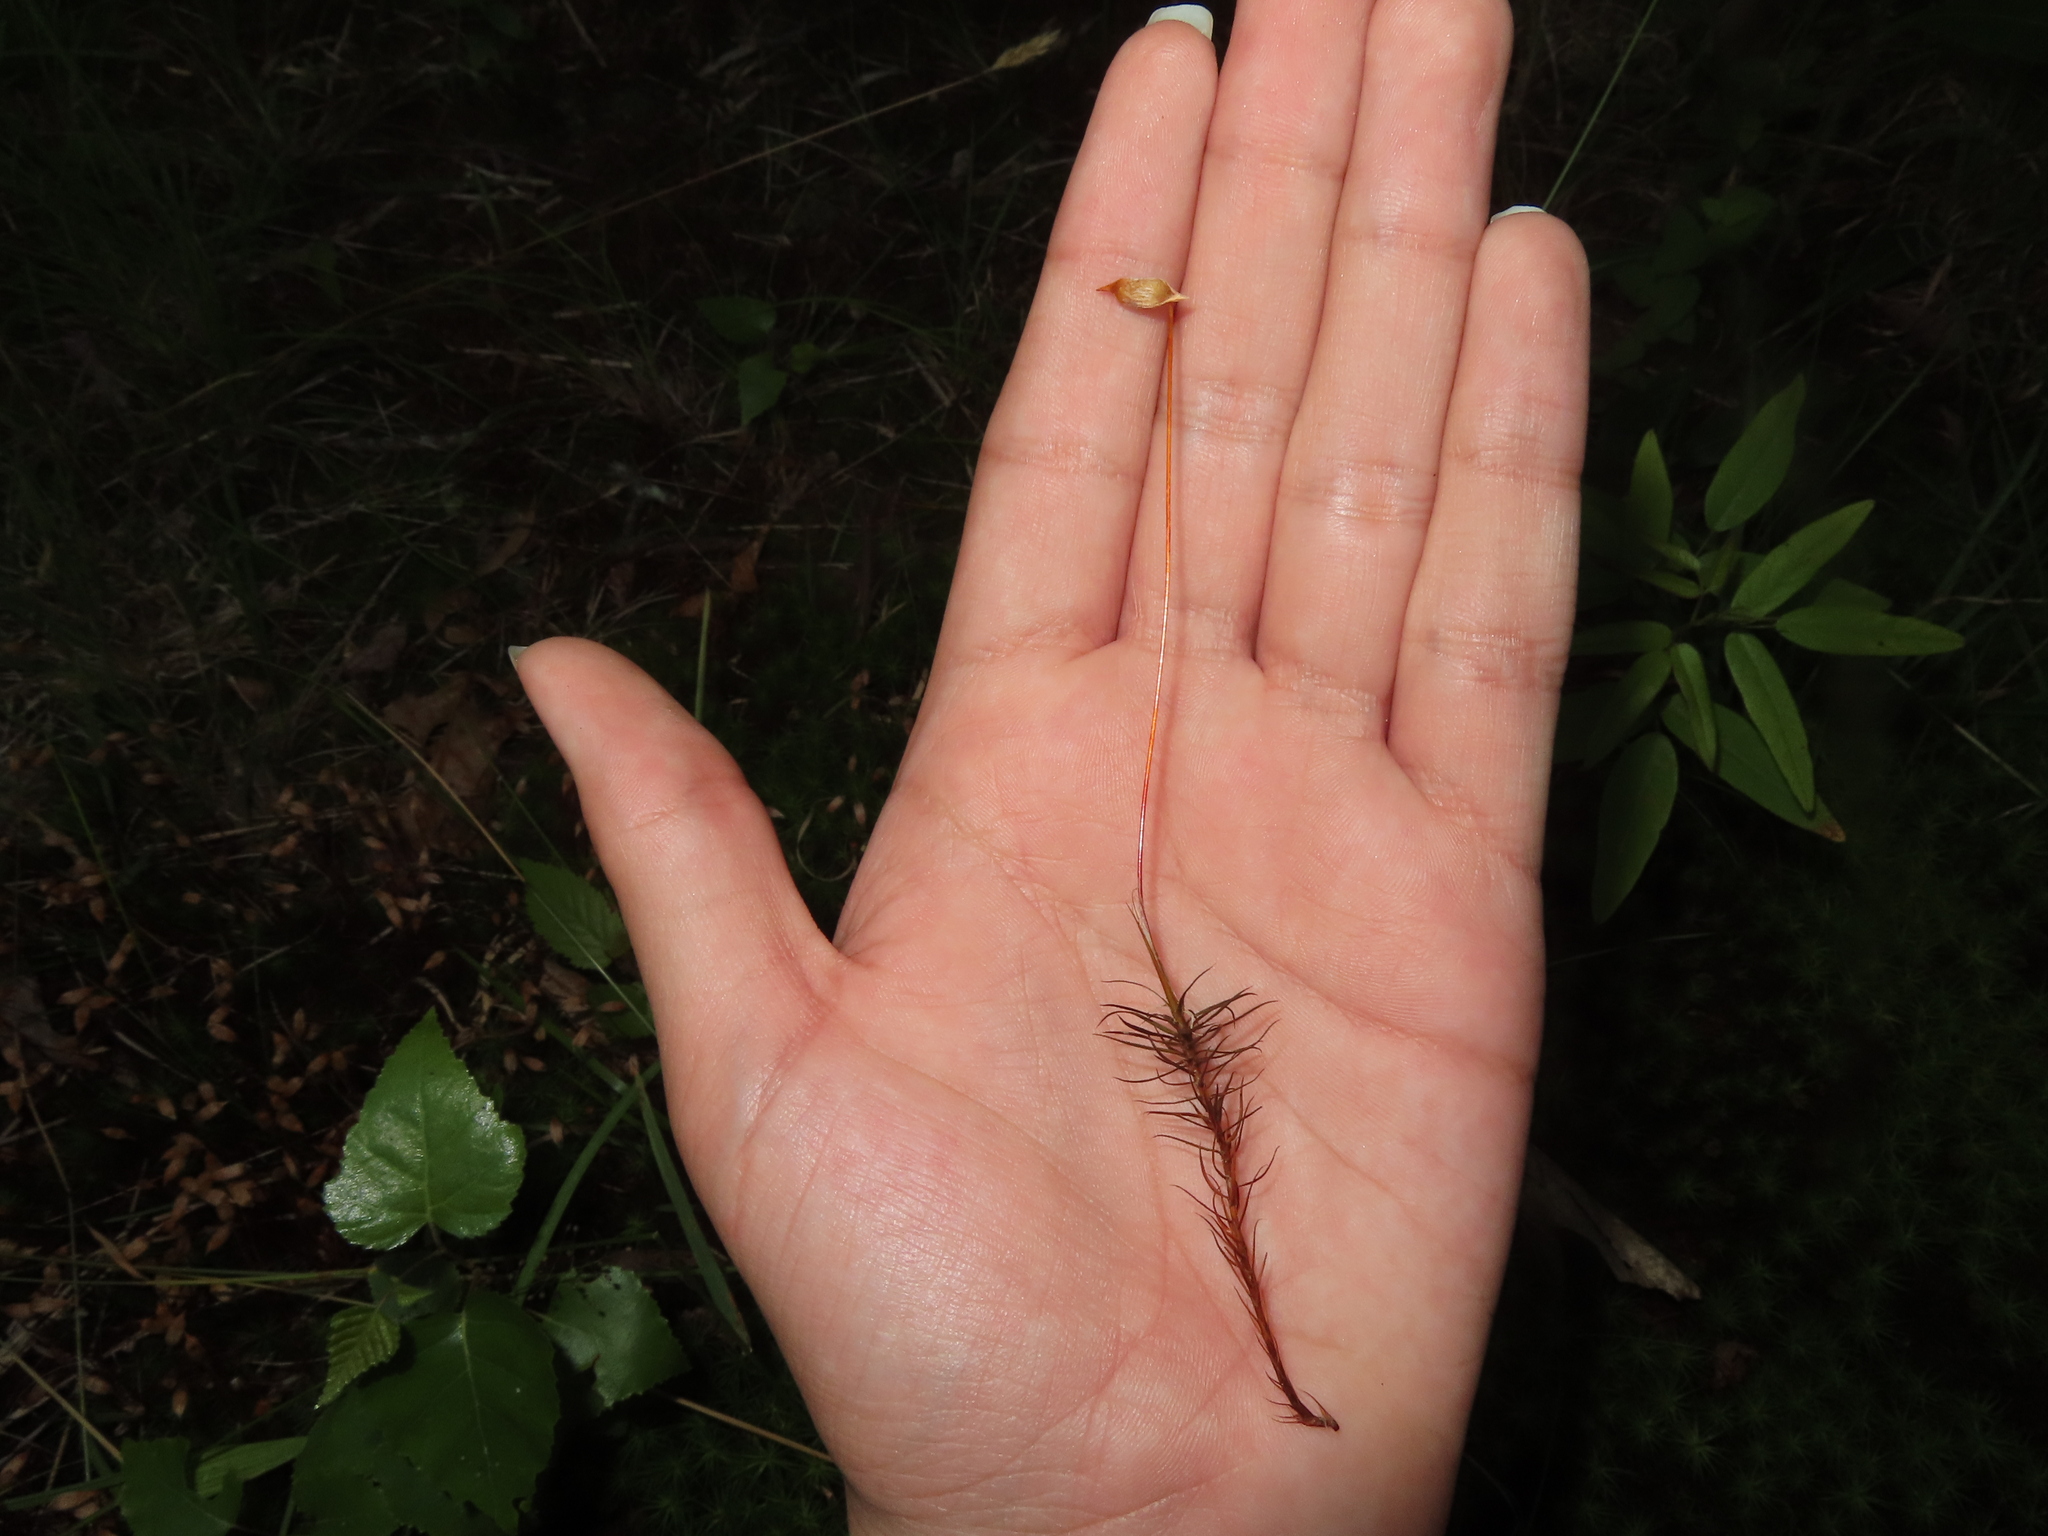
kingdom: Plantae
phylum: Bryophyta
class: Polytrichopsida
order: Polytrichales
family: Polytrichaceae
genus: Polytrichum
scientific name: Polytrichum commune
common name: Common haircap
